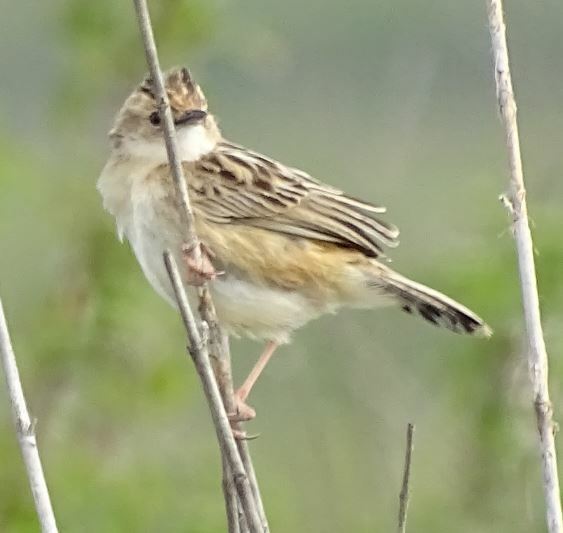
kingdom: Animalia
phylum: Chordata
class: Aves
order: Passeriformes
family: Cisticolidae
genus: Cisticola
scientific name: Cisticola juncidis
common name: Zitting cisticola
